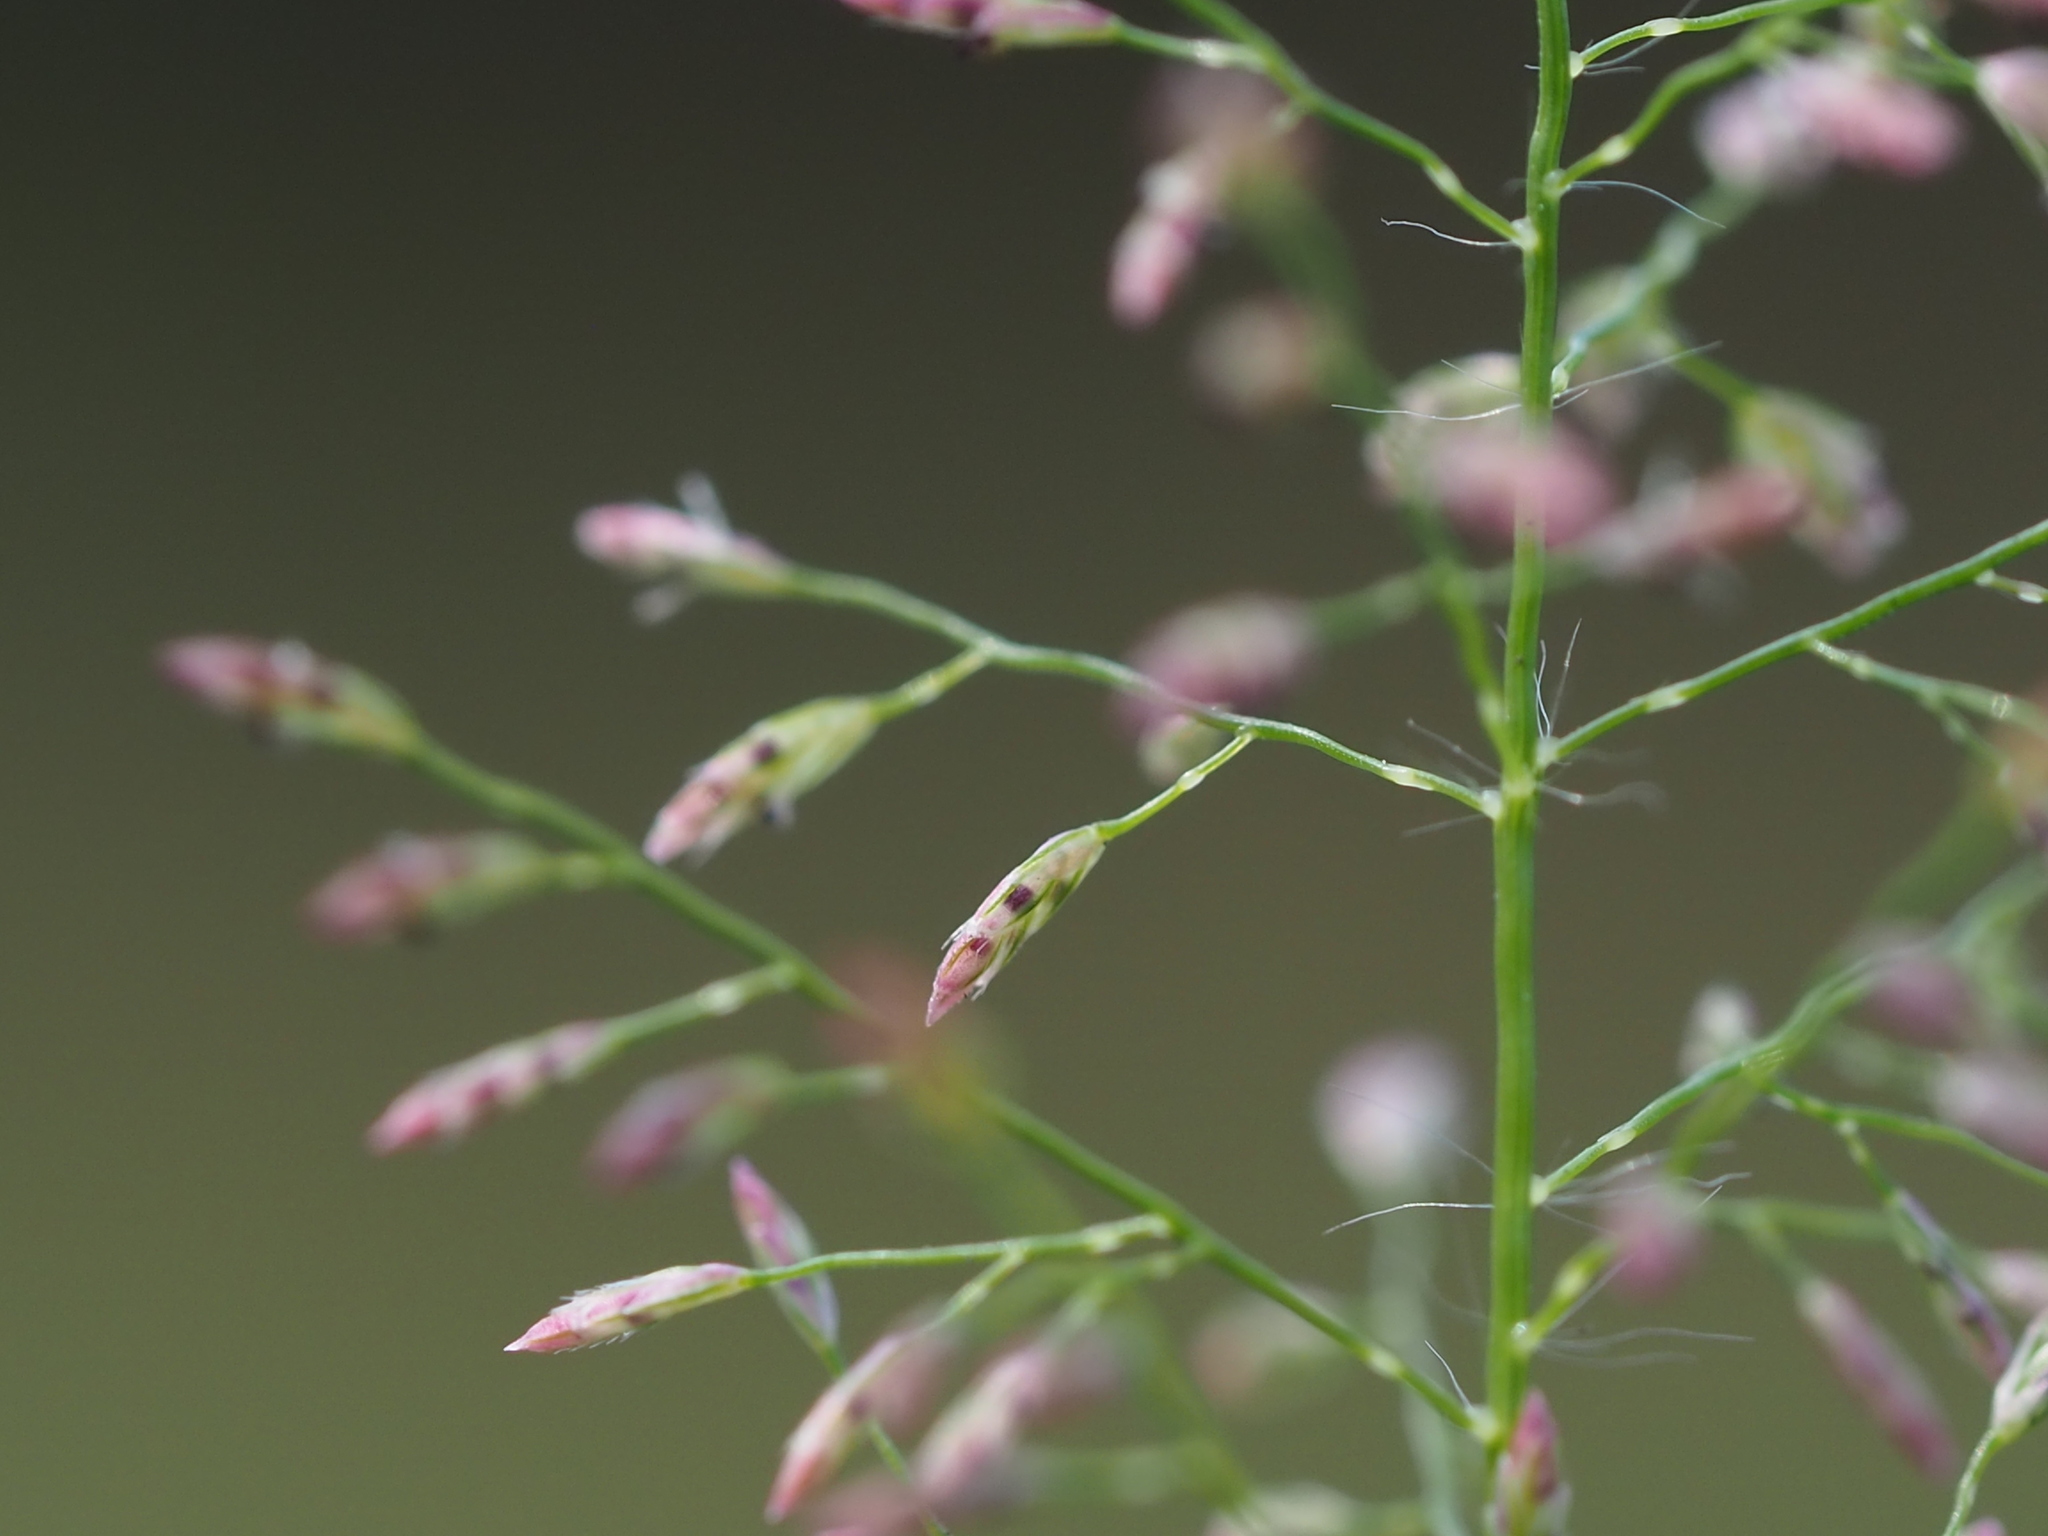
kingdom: Plantae
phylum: Tracheophyta
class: Liliopsida
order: Poales
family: Poaceae
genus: Eragrostis
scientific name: Eragrostis tenella
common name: Japanese lovegrass
